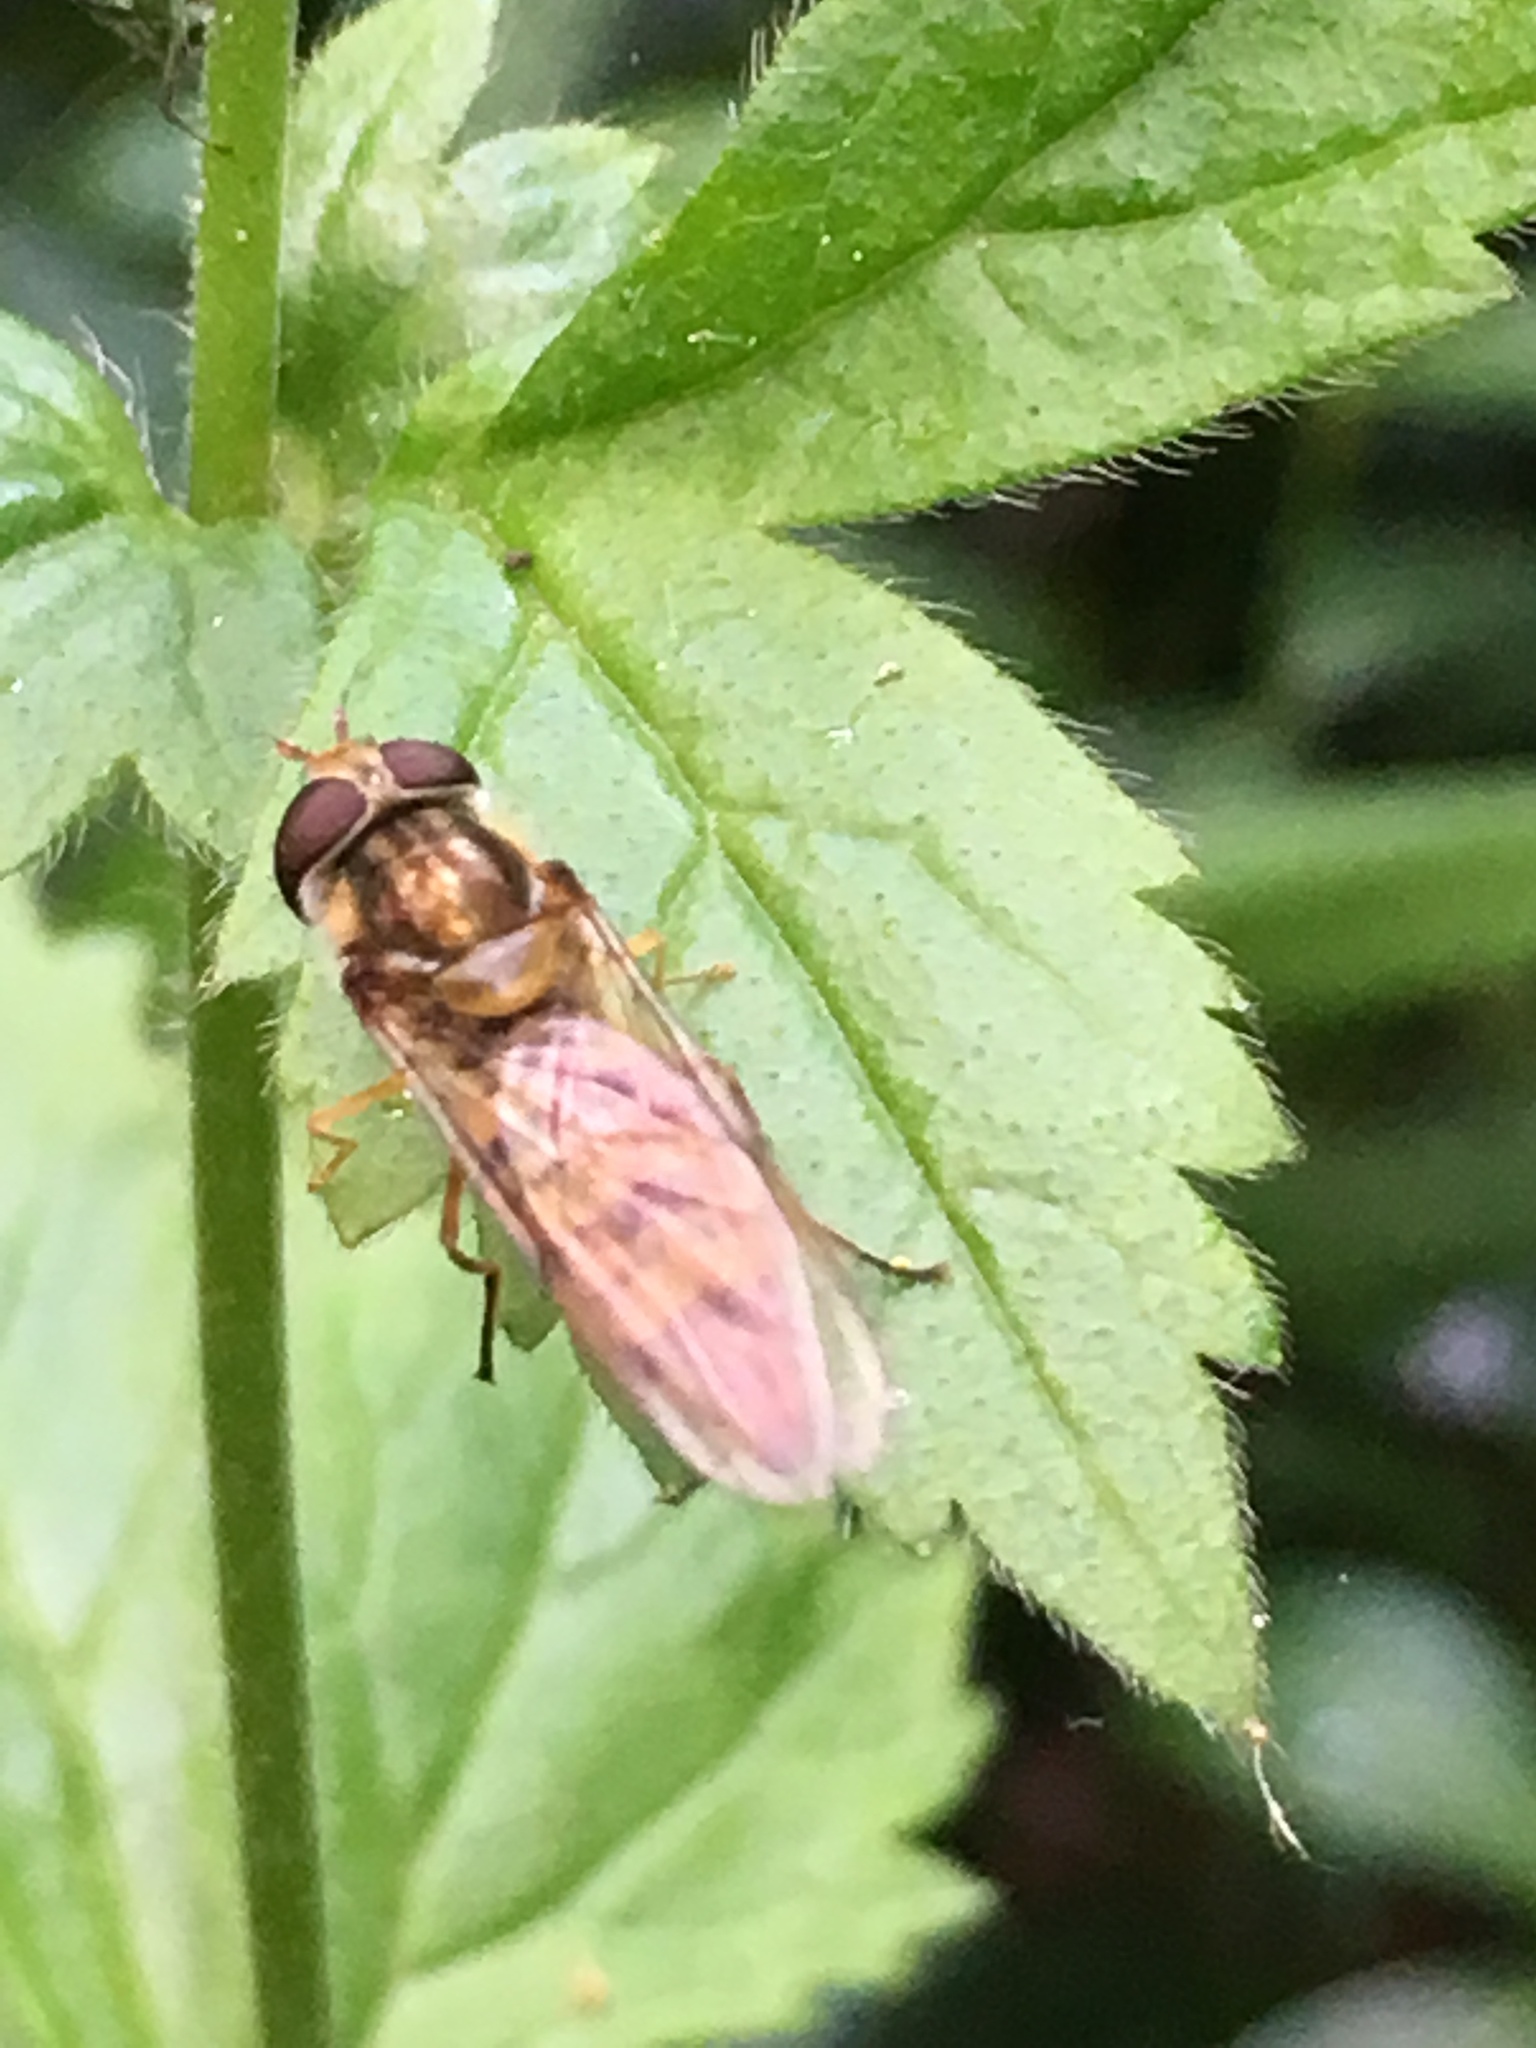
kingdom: Animalia
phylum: Arthropoda
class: Insecta
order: Diptera
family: Syrphidae
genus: Episyrphus
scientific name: Episyrphus balteatus
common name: Marmalade hoverfly
